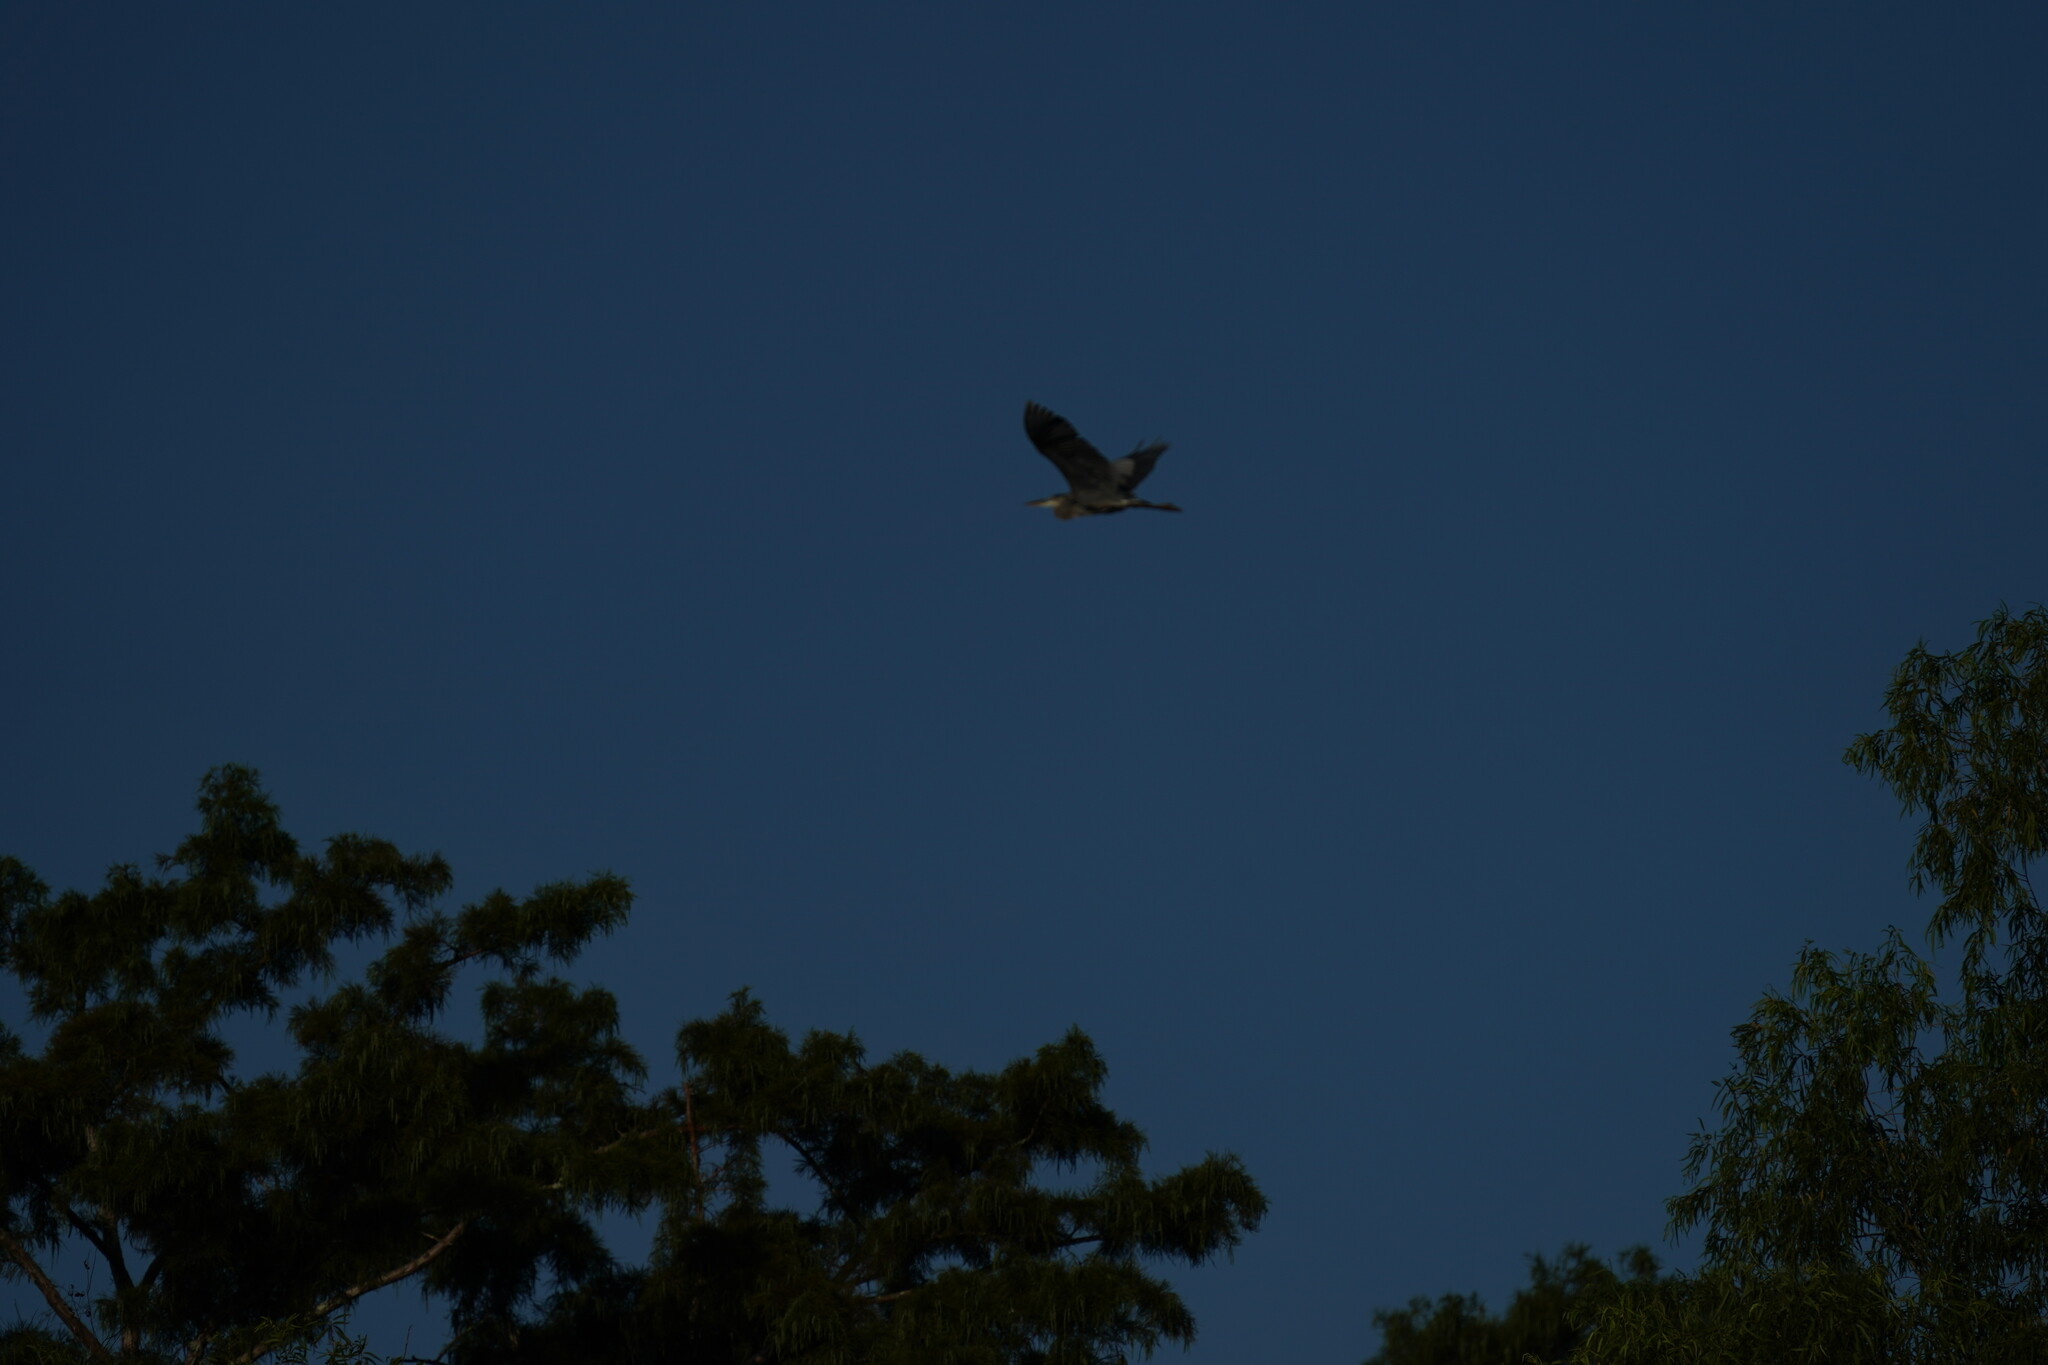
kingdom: Animalia
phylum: Chordata
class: Aves
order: Pelecaniformes
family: Ardeidae
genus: Ardea
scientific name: Ardea herodias
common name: Great blue heron
